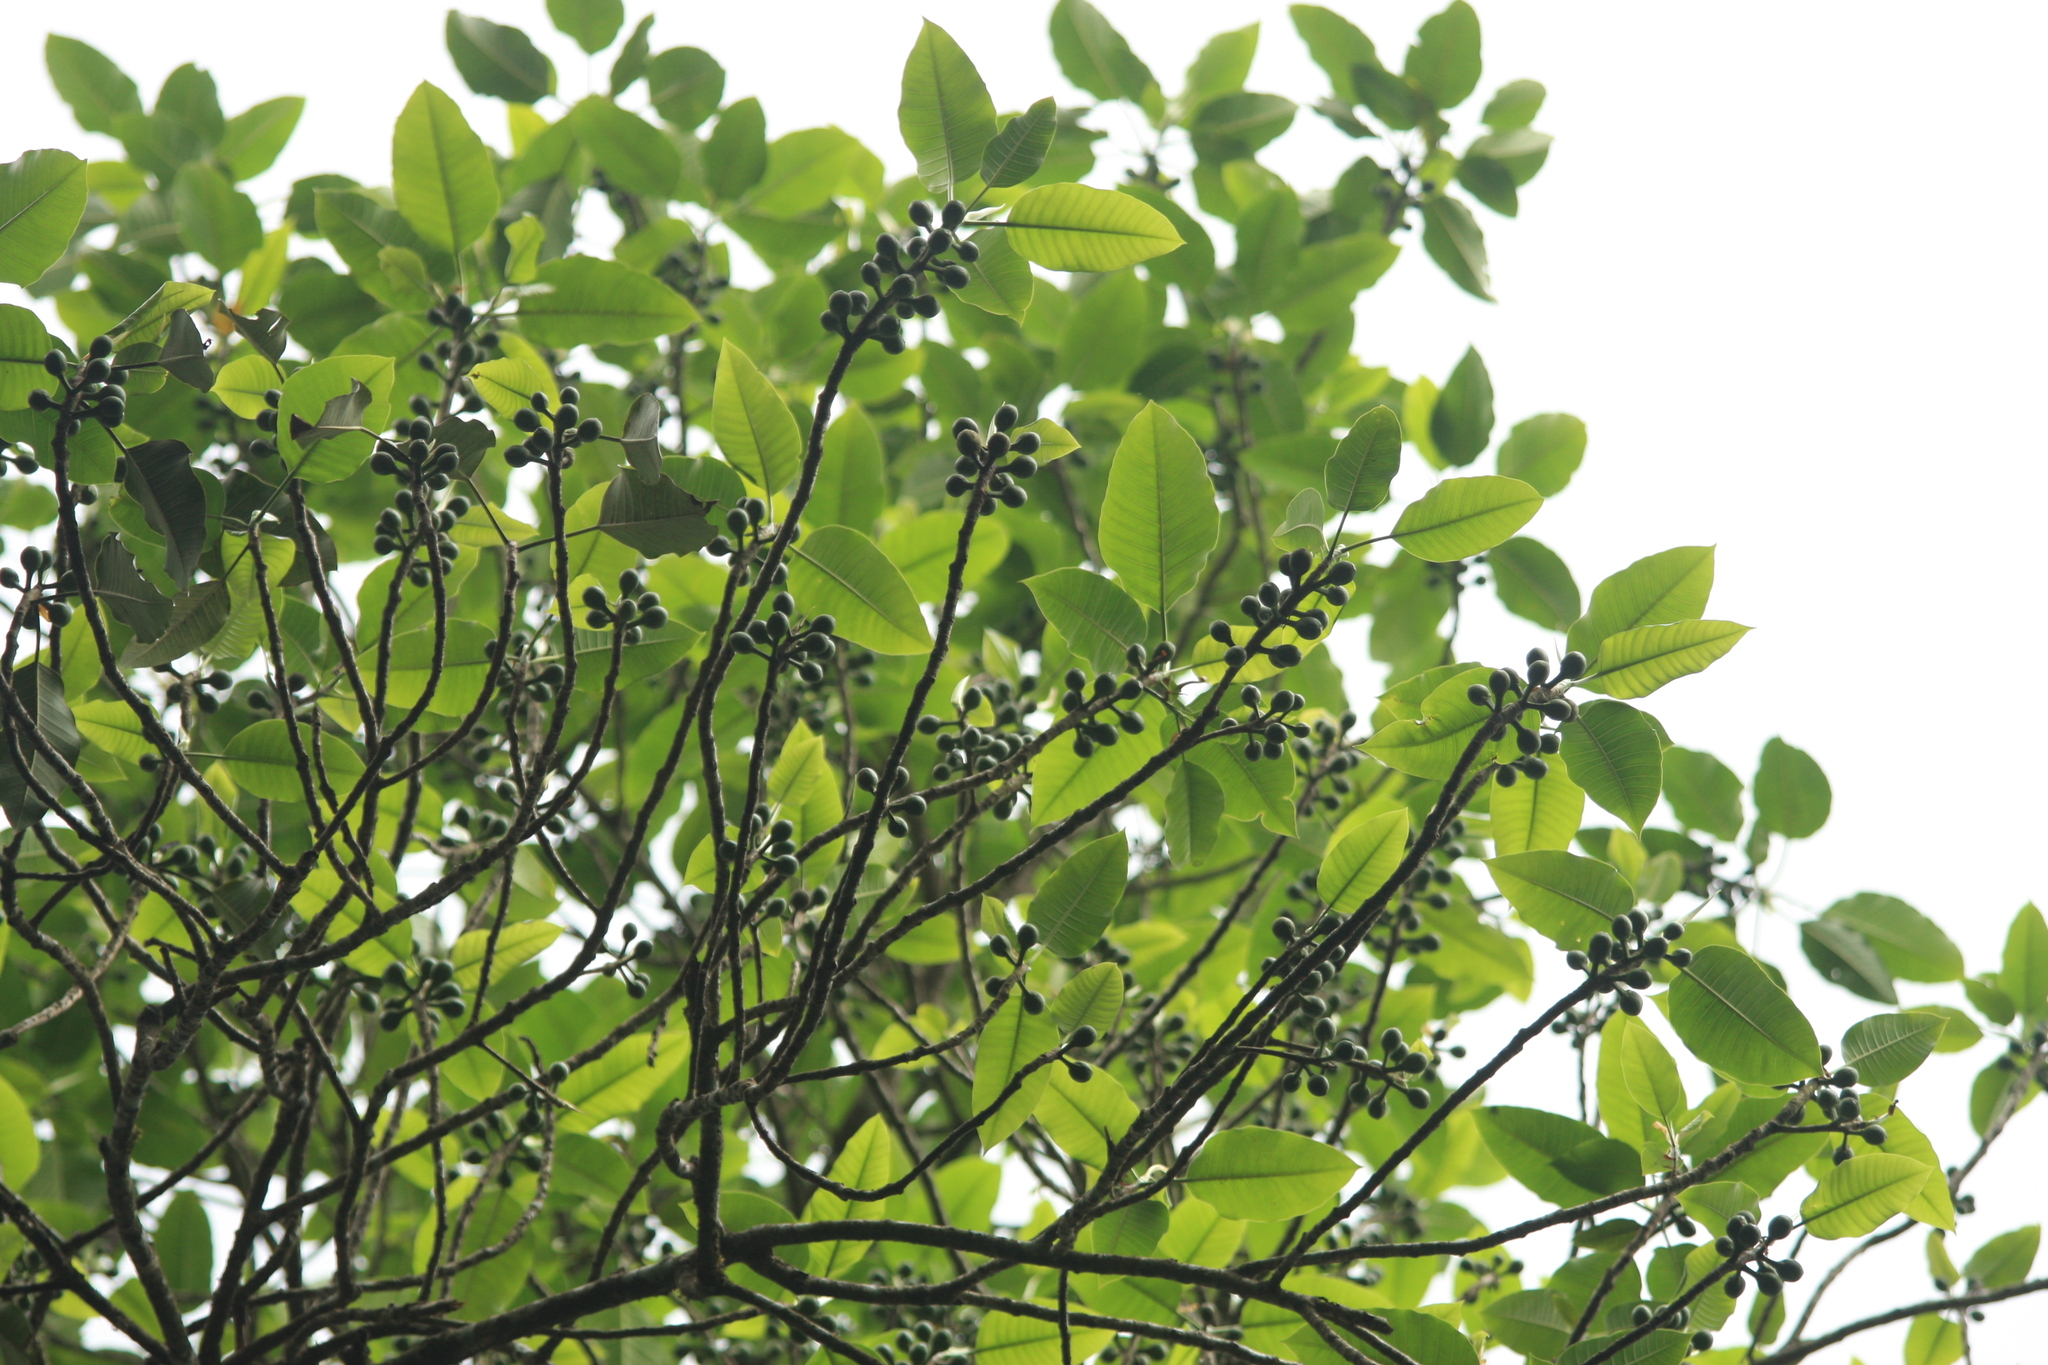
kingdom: Plantae
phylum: Tracheophyta
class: Magnoliopsida
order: Rosales
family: Moraceae
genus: Ficus
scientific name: Ficus beddomei
